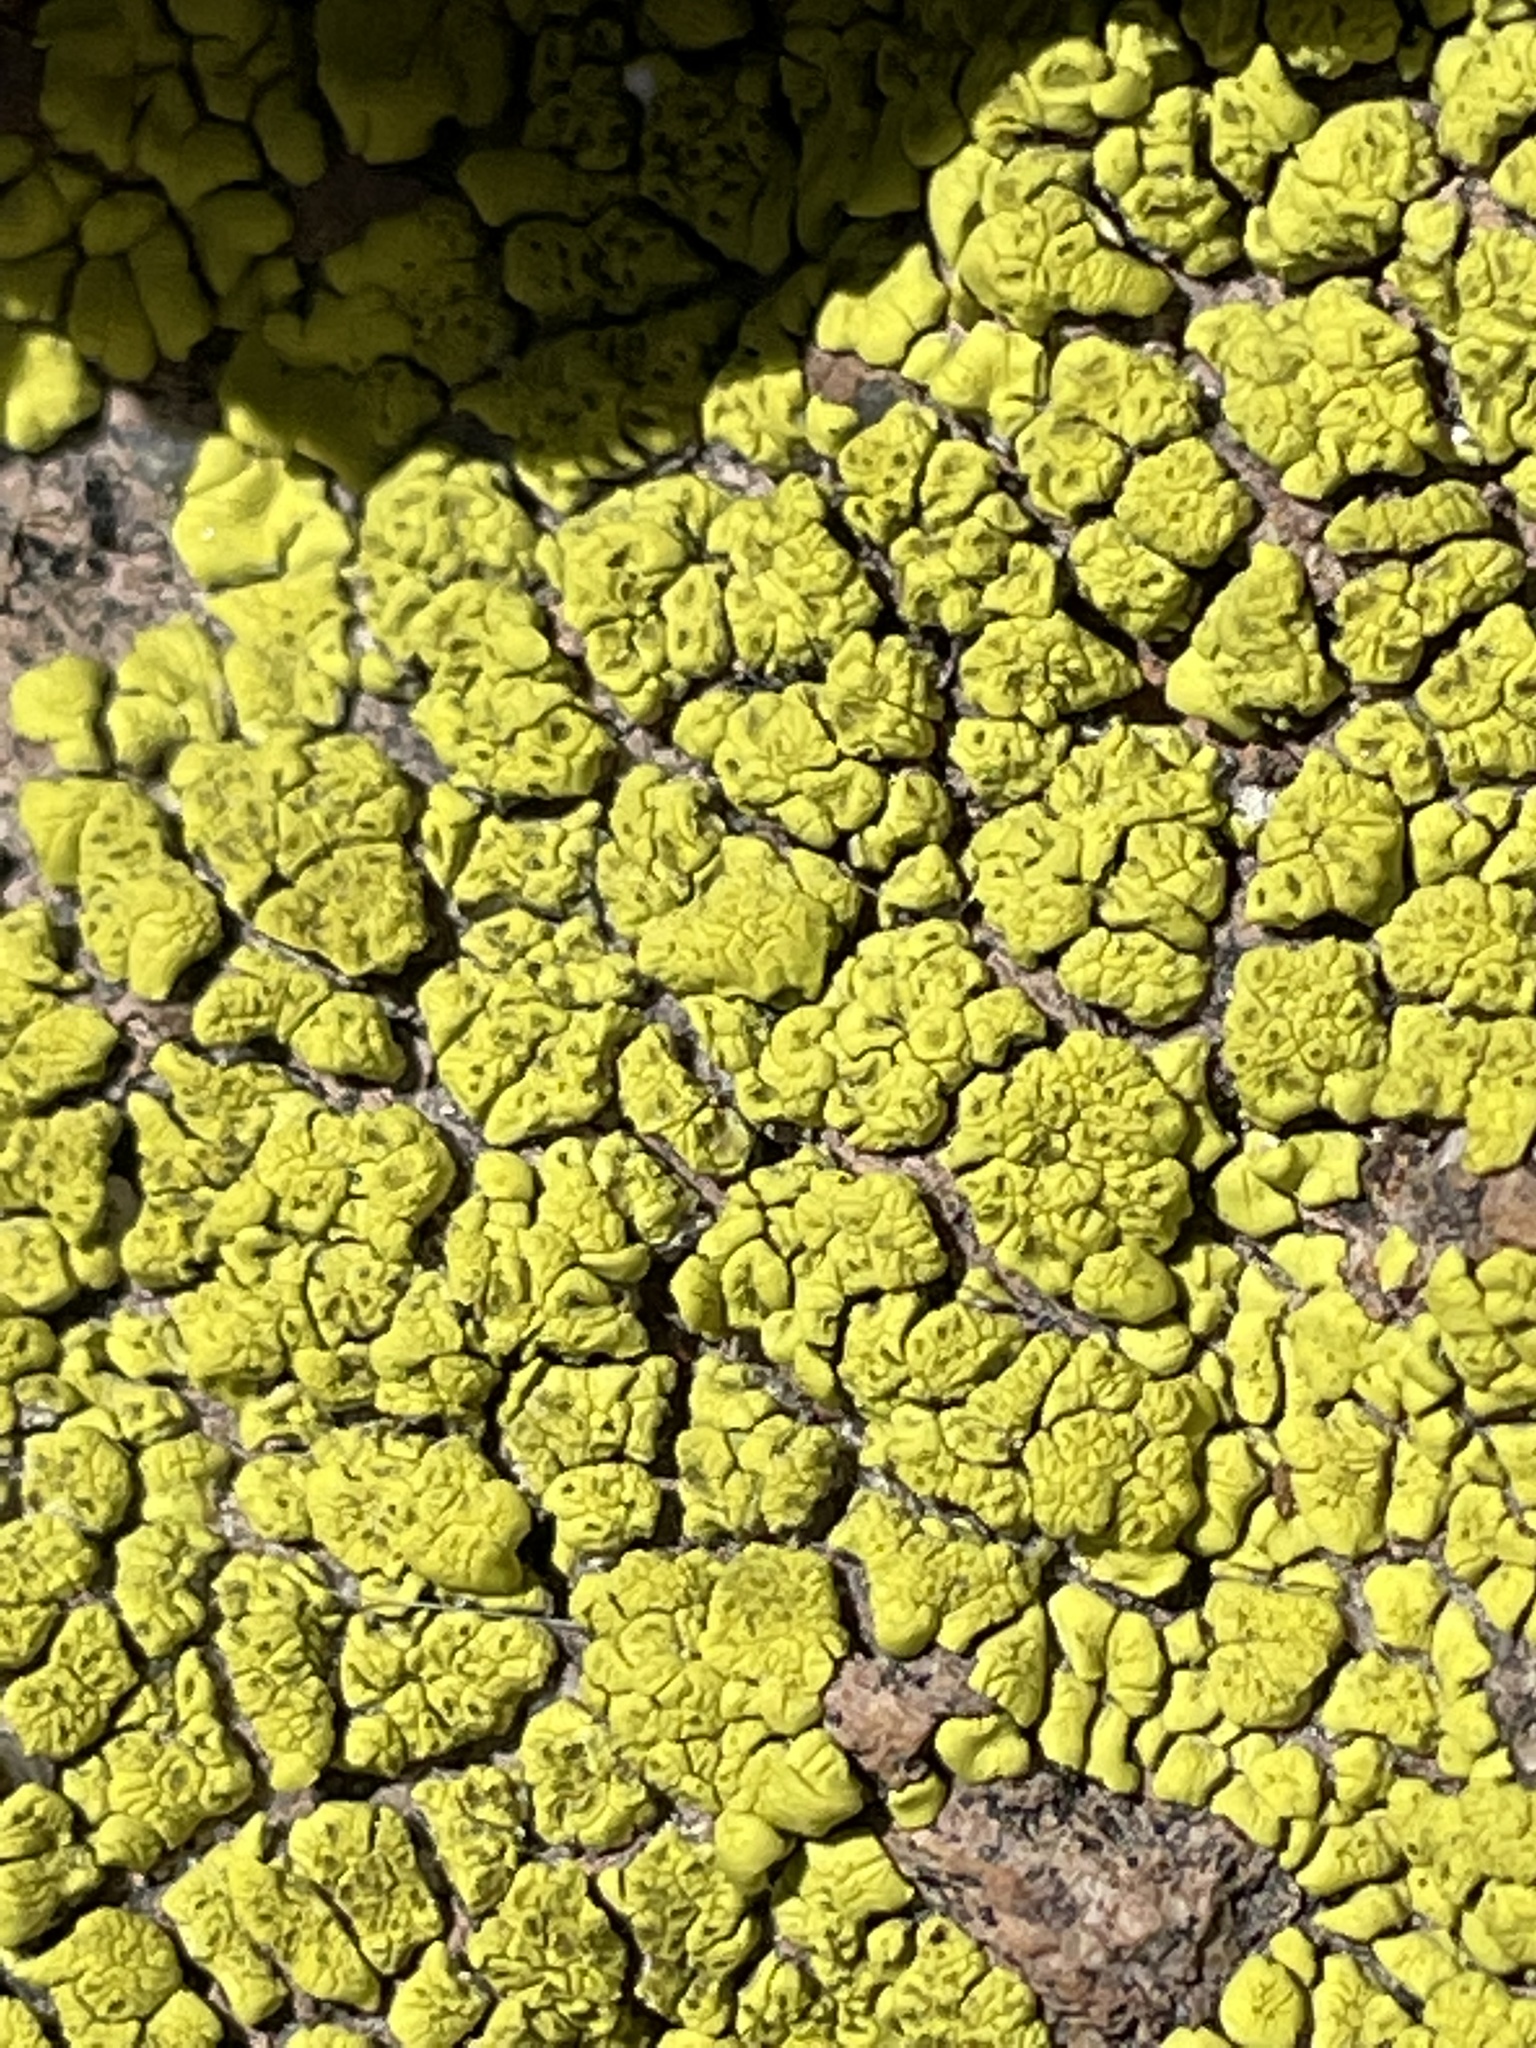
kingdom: Fungi
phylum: Ascomycota
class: Lecanoromycetes
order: Acarosporales
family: Acarosporaceae
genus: Acarospora
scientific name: Acarospora socialis
